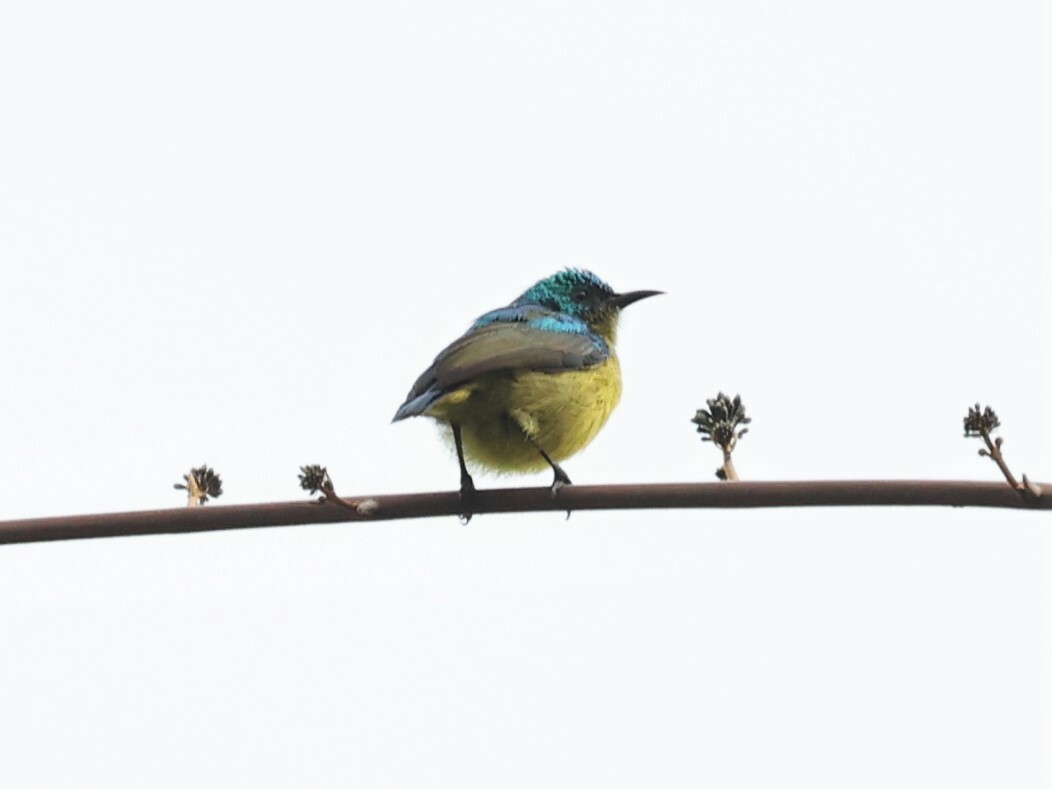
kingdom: Animalia
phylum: Chordata
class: Aves
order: Passeriformes
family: Nectariniidae
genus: Hedydipna
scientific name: Hedydipna collaris
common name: Collared sunbird
